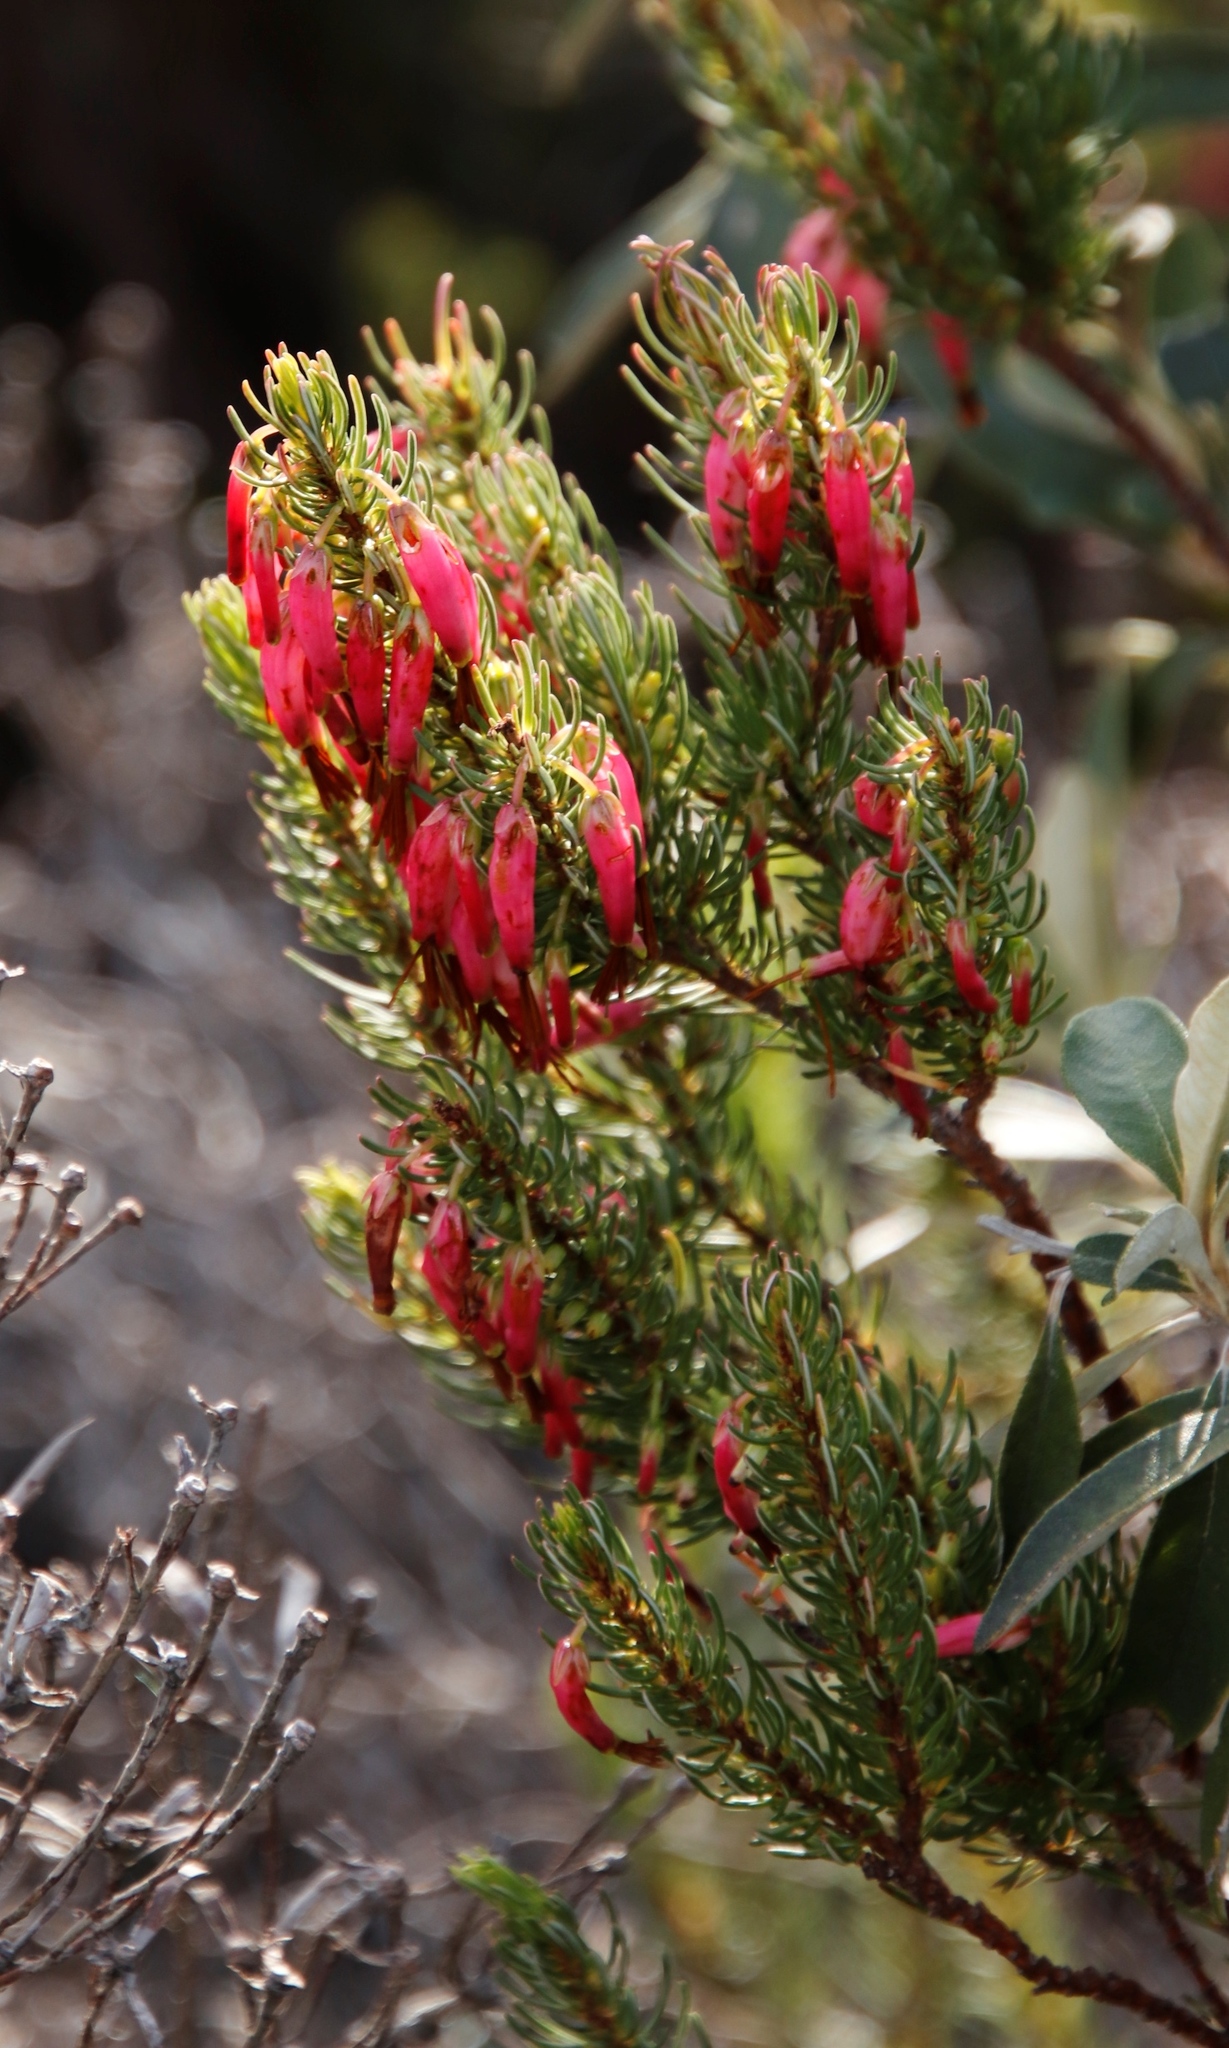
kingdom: Plantae
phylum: Tracheophyta
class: Magnoliopsida
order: Ericales
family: Ericaceae
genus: Erica
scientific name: Erica plukenetii
